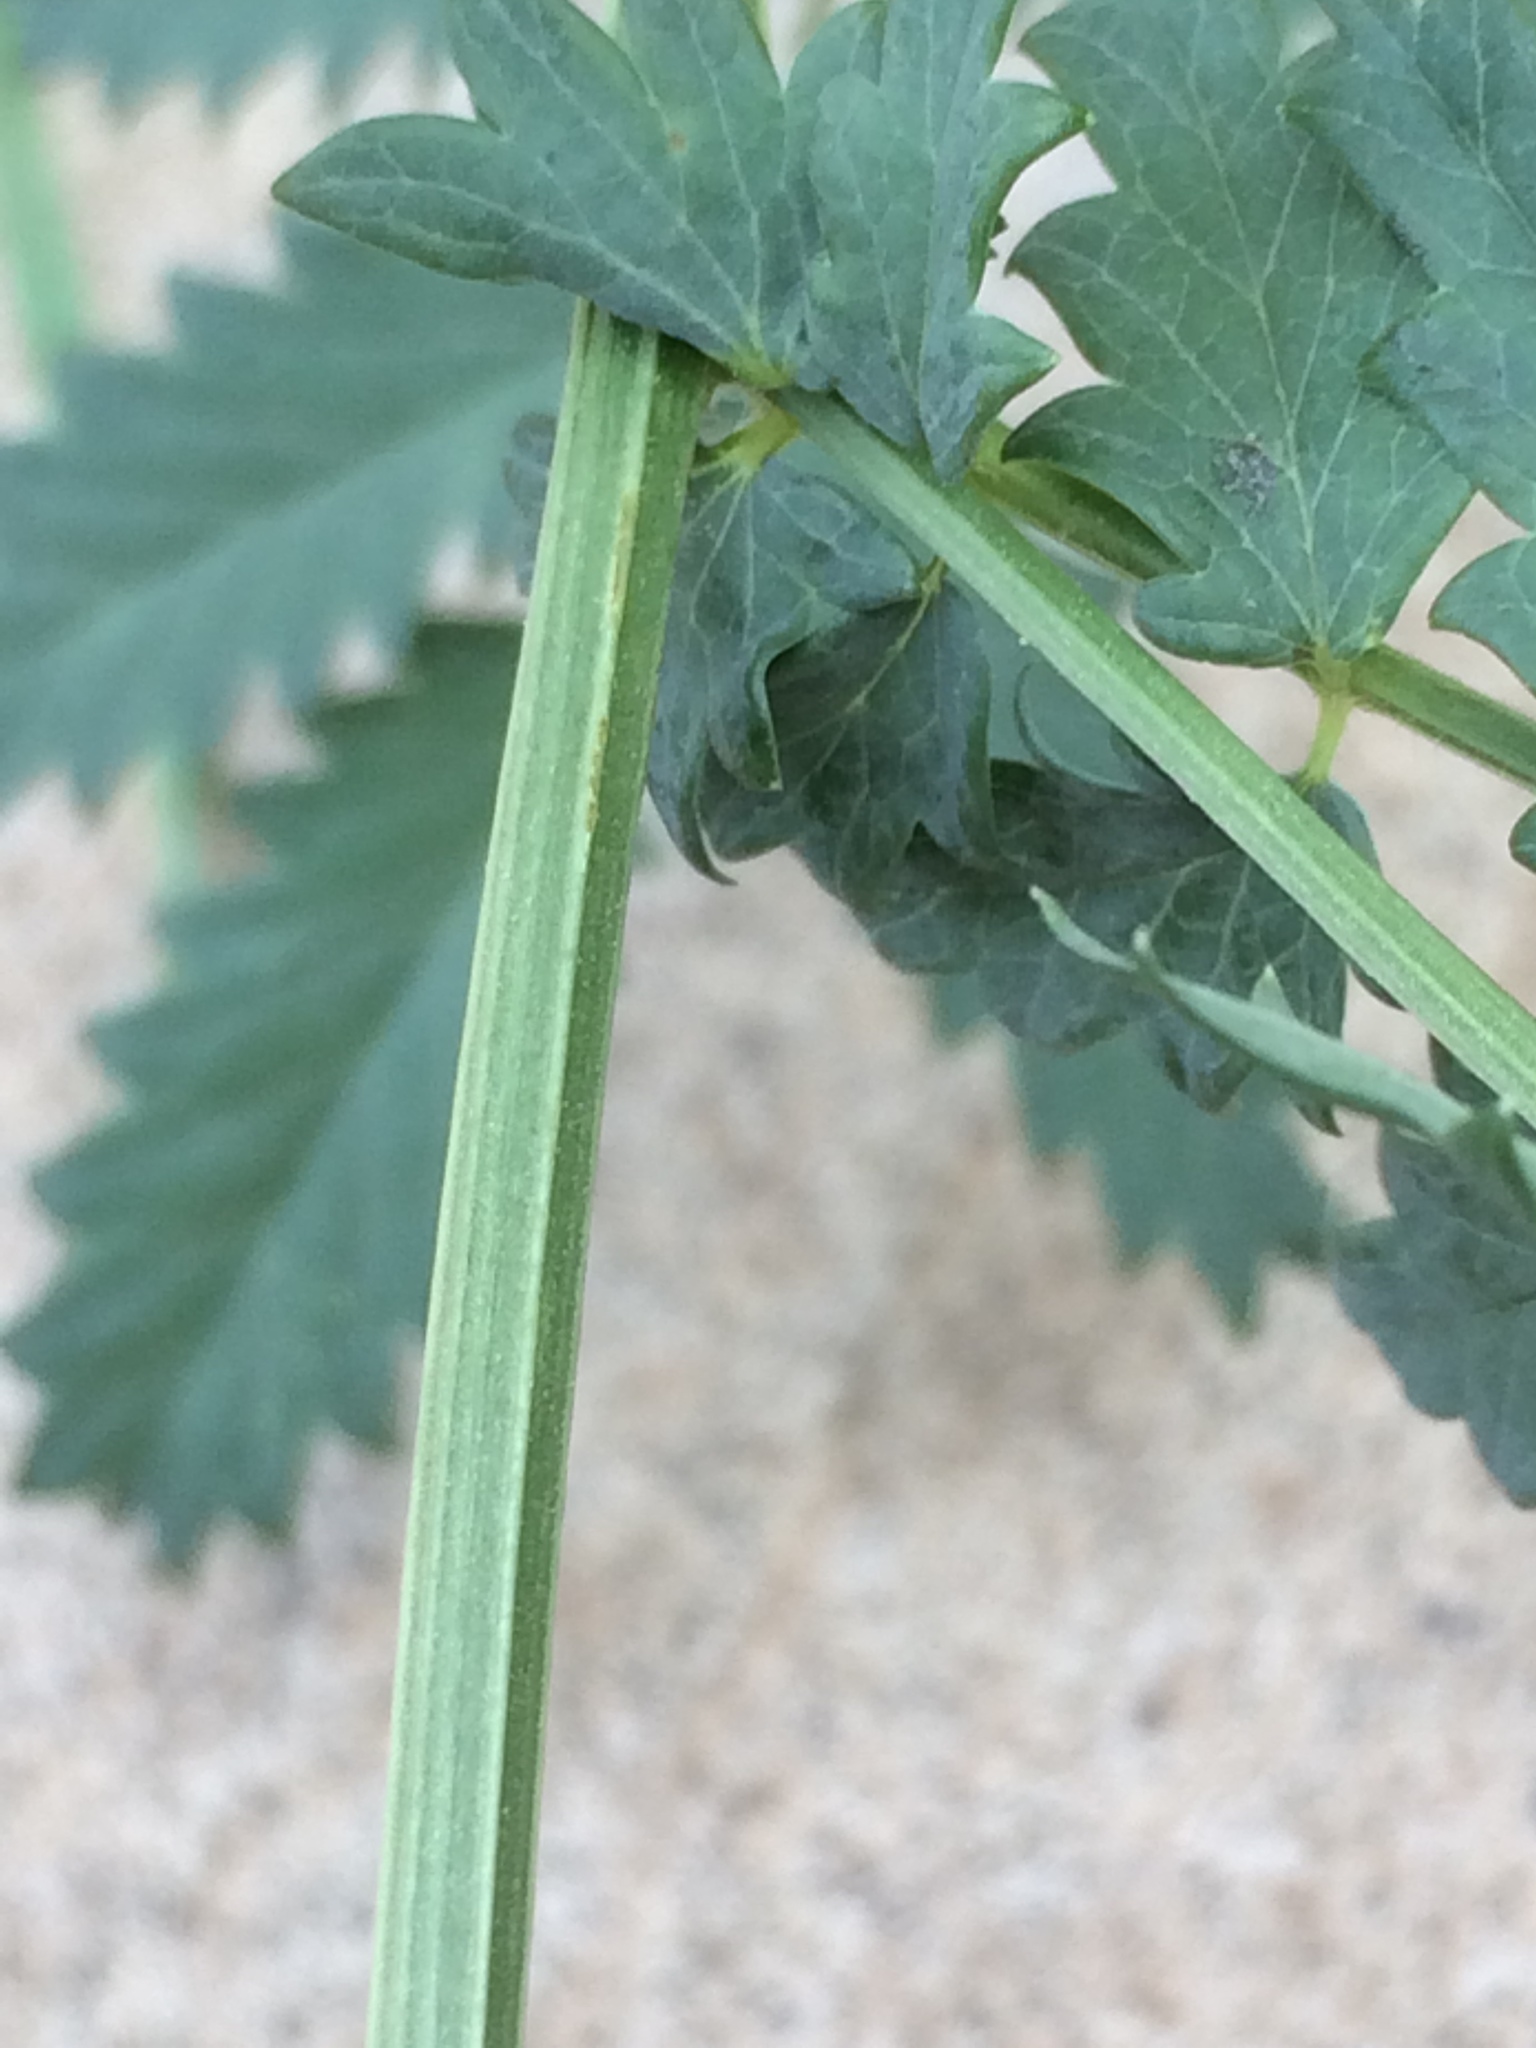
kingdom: Plantae
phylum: Tracheophyta
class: Magnoliopsida
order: Rosales
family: Rosaceae
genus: Poteridium
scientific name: Poteridium occidentale
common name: Western burnet
